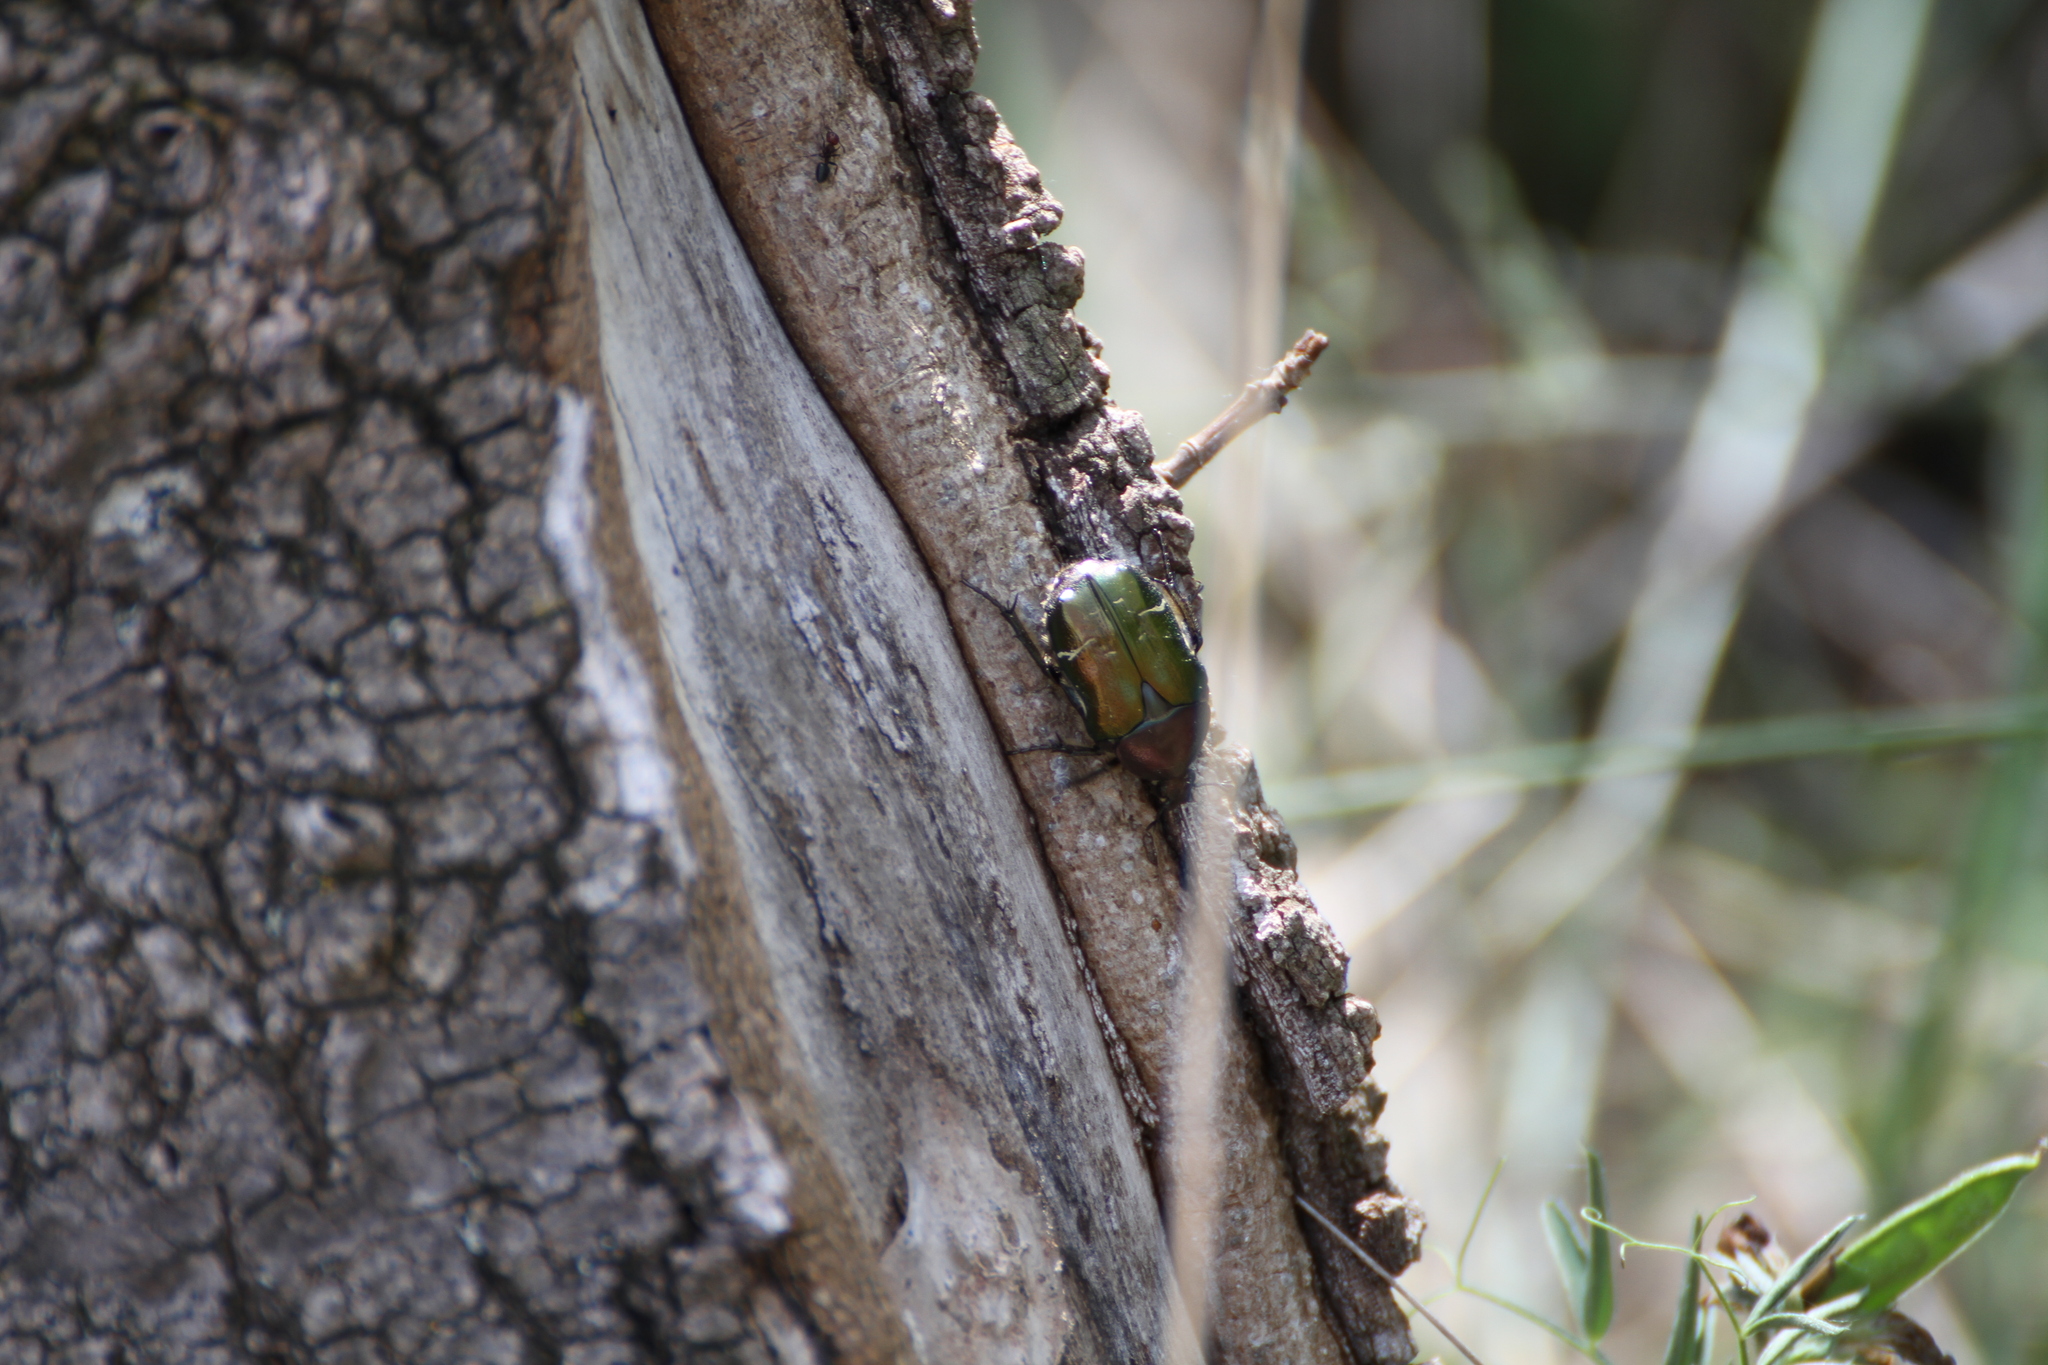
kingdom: Animalia
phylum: Arthropoda
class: Insecta
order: Coleoptera
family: Scarabaeidae
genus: Cetonia
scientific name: Cetonia aurata
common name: Rose chafer
